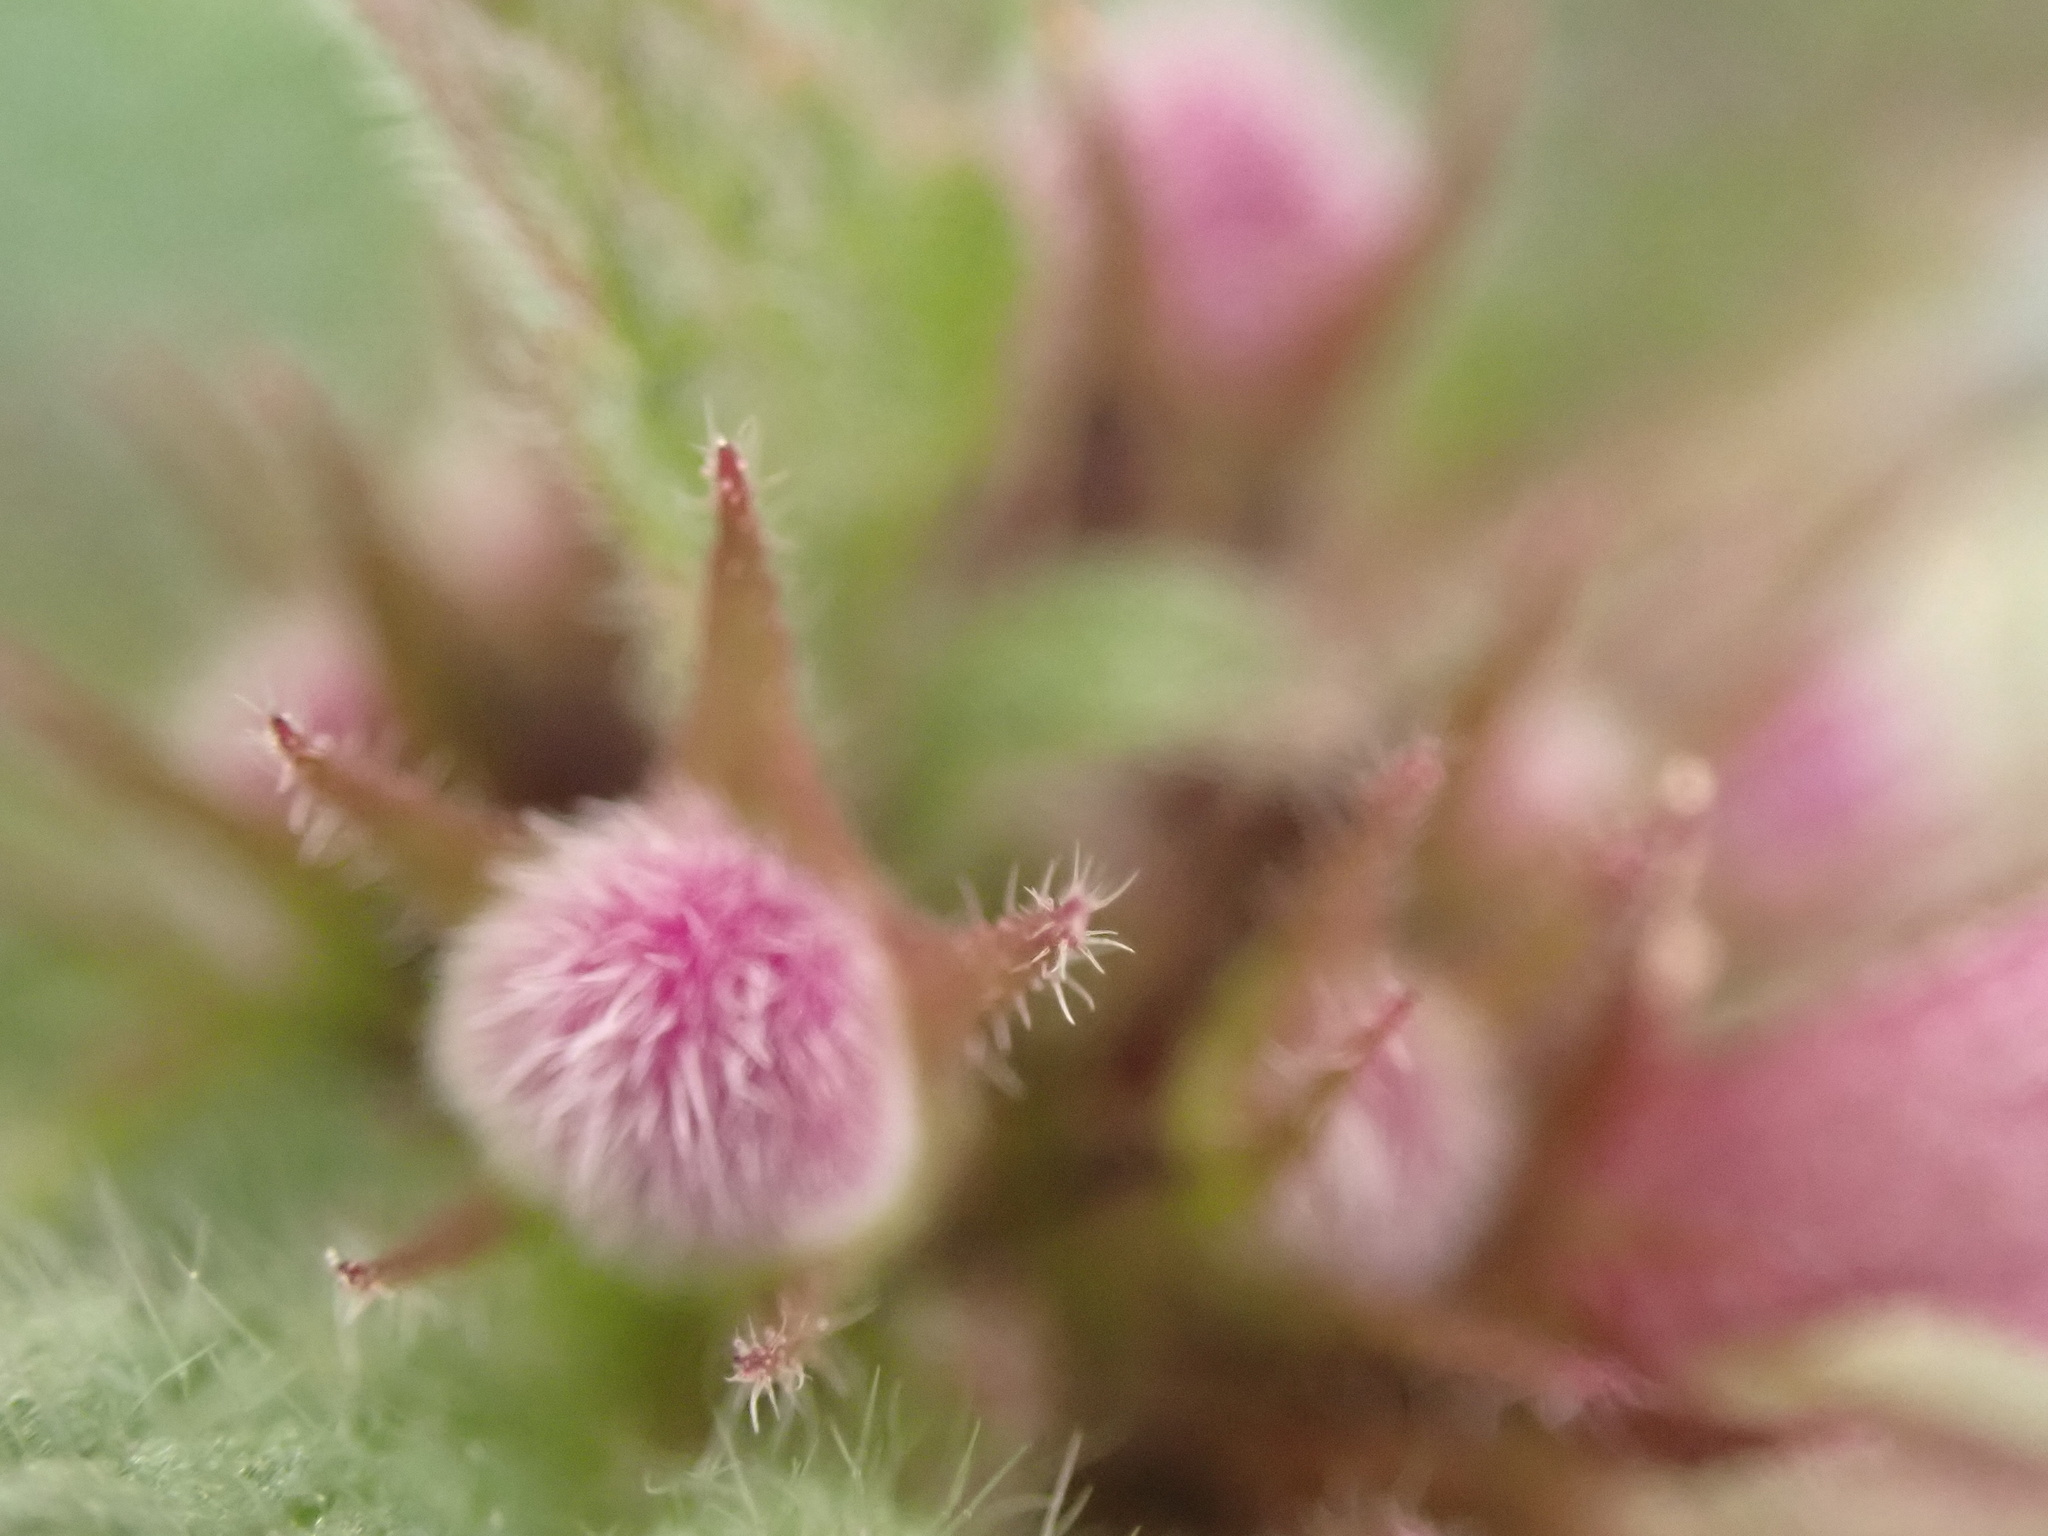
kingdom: Plantae
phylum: Tracheophyta
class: Magnoliopsida
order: Lamiales
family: Lamiaceae
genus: Lamium
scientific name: Lamium purpureum
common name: Red dead-nettle
